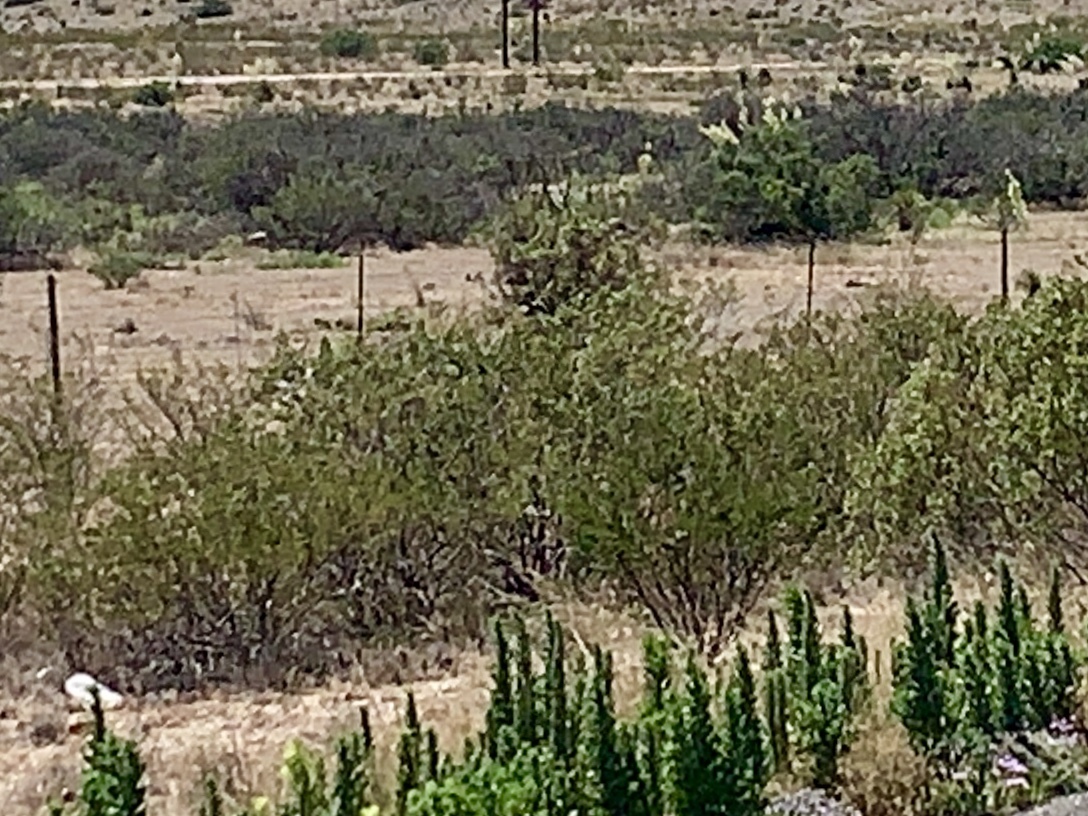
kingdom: Plantae
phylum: Tracheophyta
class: Magnoliopsida
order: Zygophyllales
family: Zygophyllaceae
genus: Larrea
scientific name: Larrea tridentata
